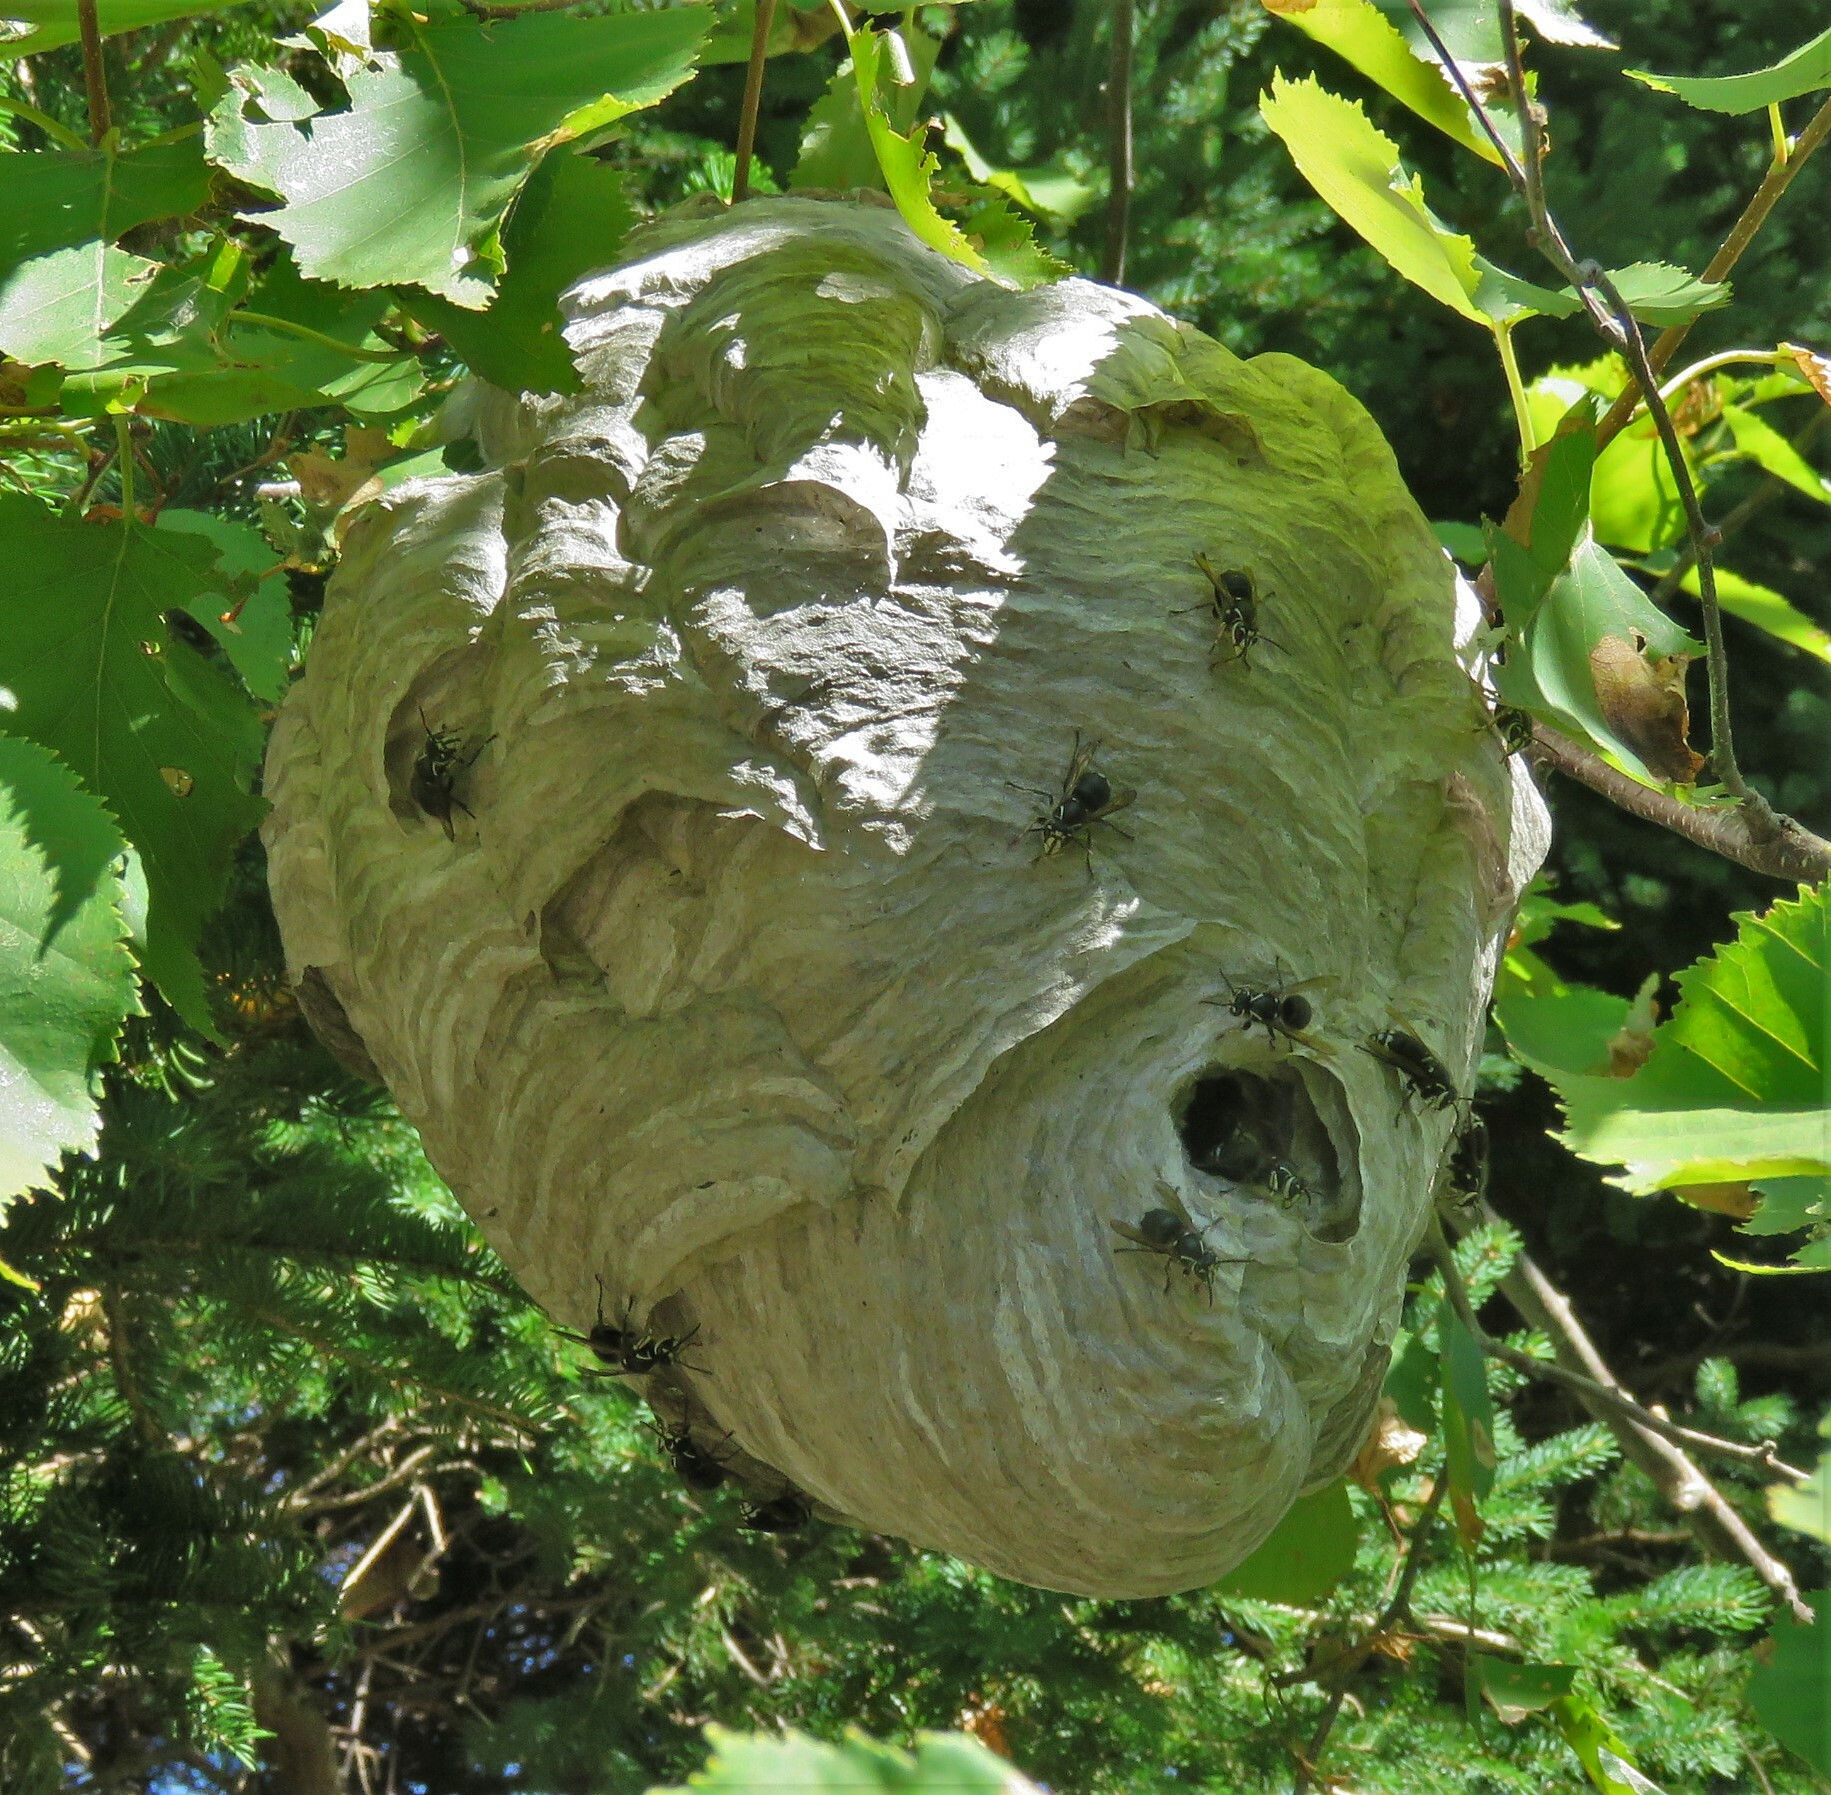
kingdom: Animalia
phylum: Arthropoda
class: Insecta
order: Hymenoptera
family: Vespidae
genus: Dolichovespula
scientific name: Dolichovespula maculata
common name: Bald-faced hornet
